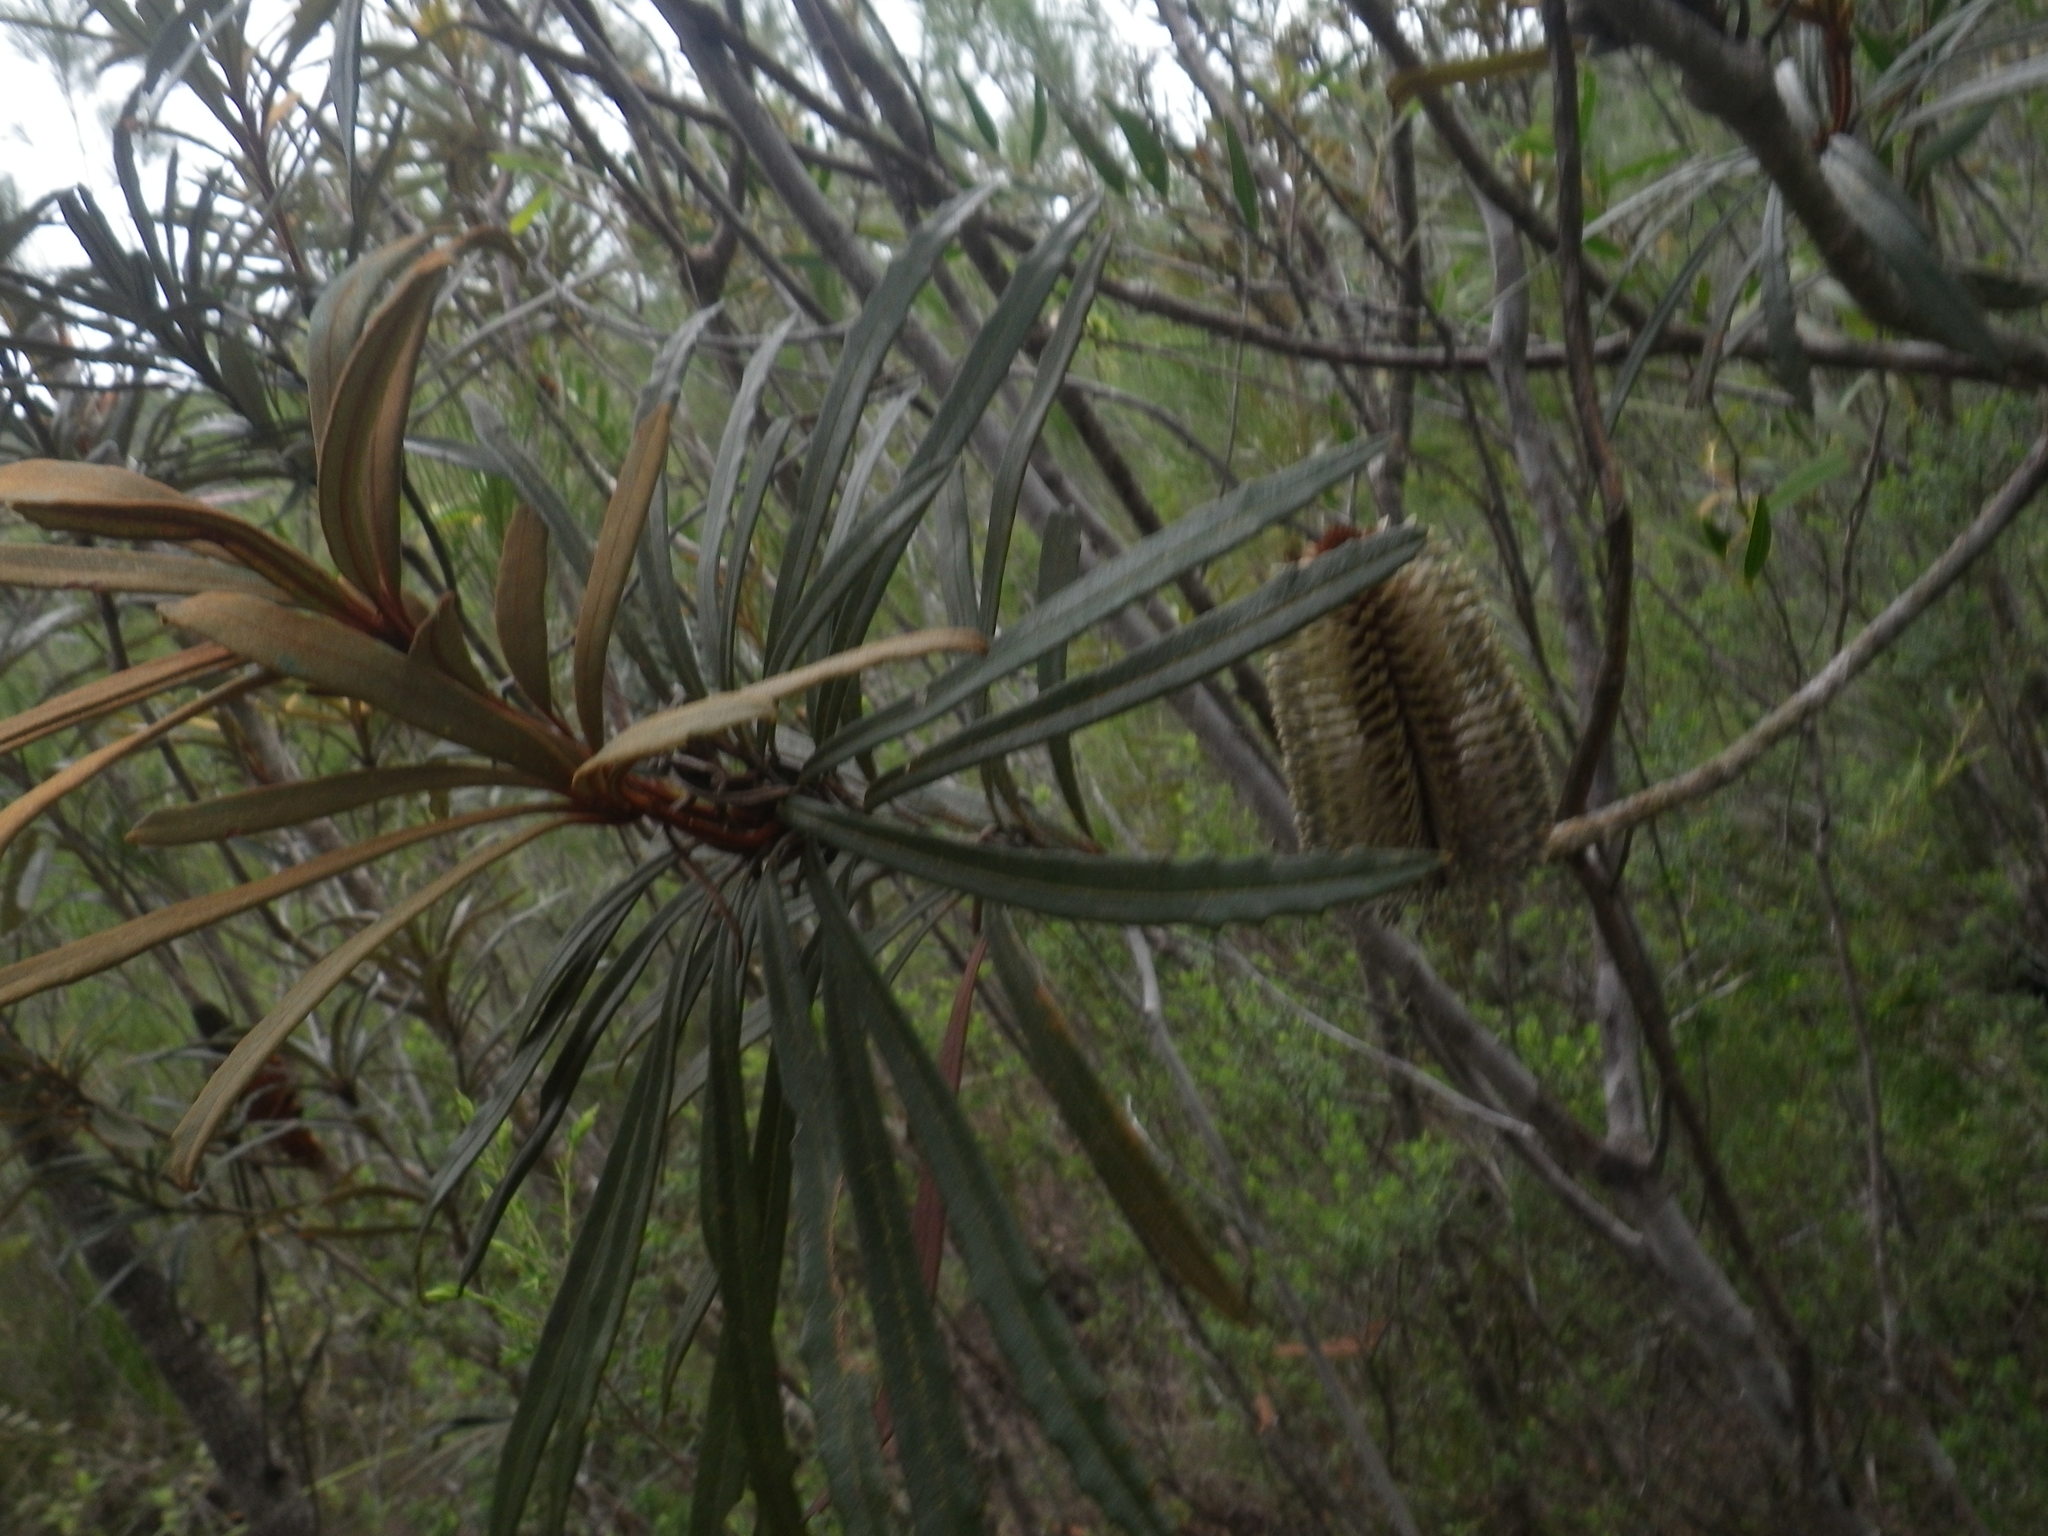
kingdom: Plantae
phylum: Tracheophyta
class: Magnoliopsida
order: Proteales
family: Proteaceae
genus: Banksia
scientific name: Banksia plagiocarpa
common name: Dallachy's banksia
